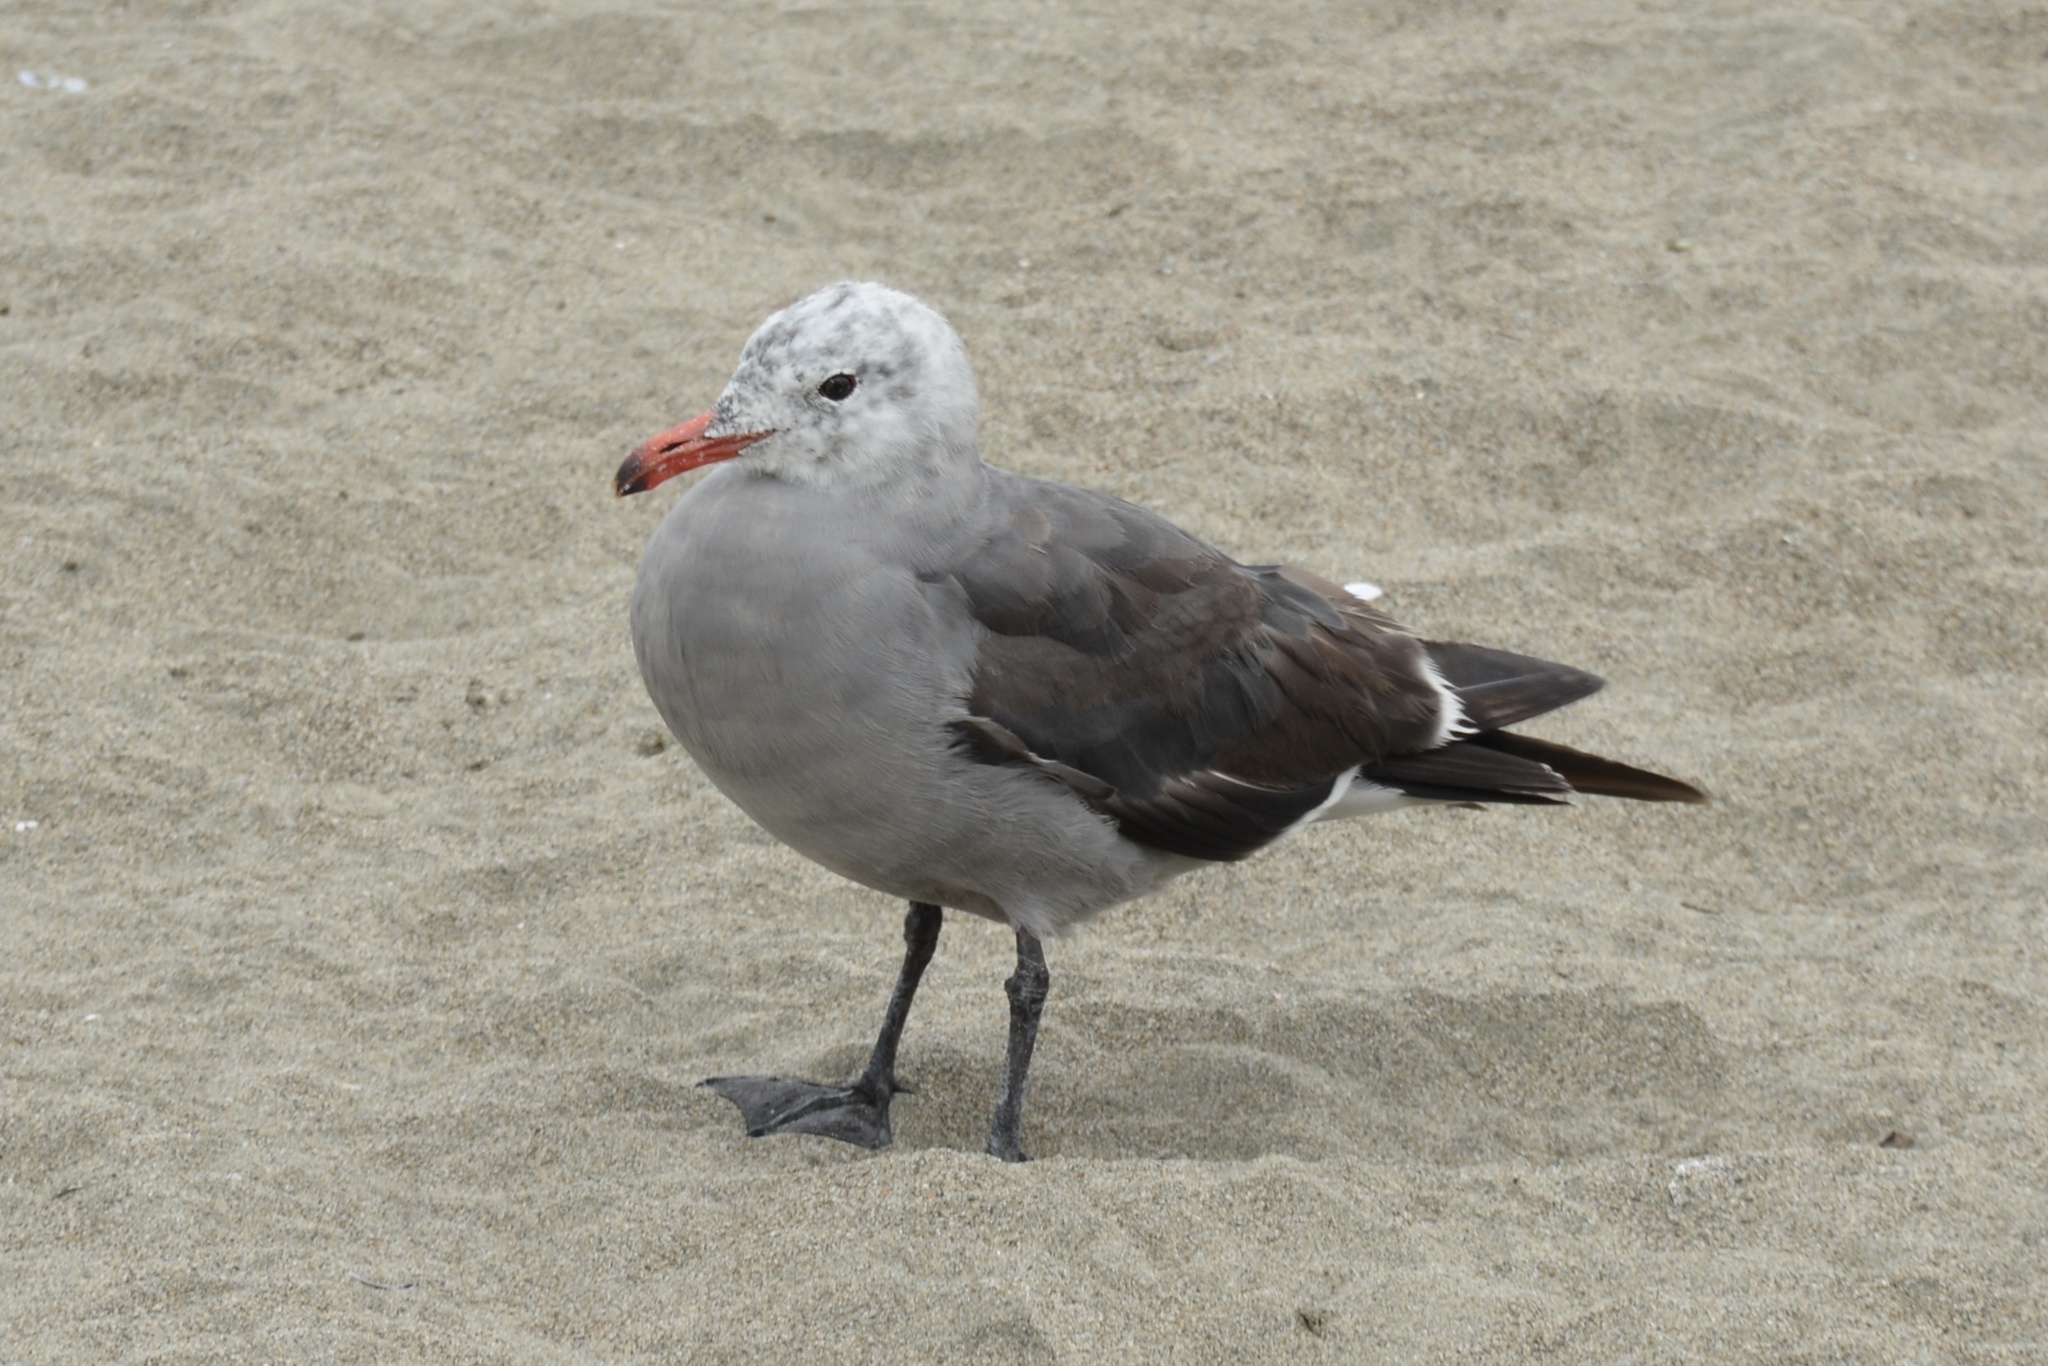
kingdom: Animalia
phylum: Chordata
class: Aves
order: Charadriiformes
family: Laridae
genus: Larus
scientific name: Larus heermanni
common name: Heermann's gull
